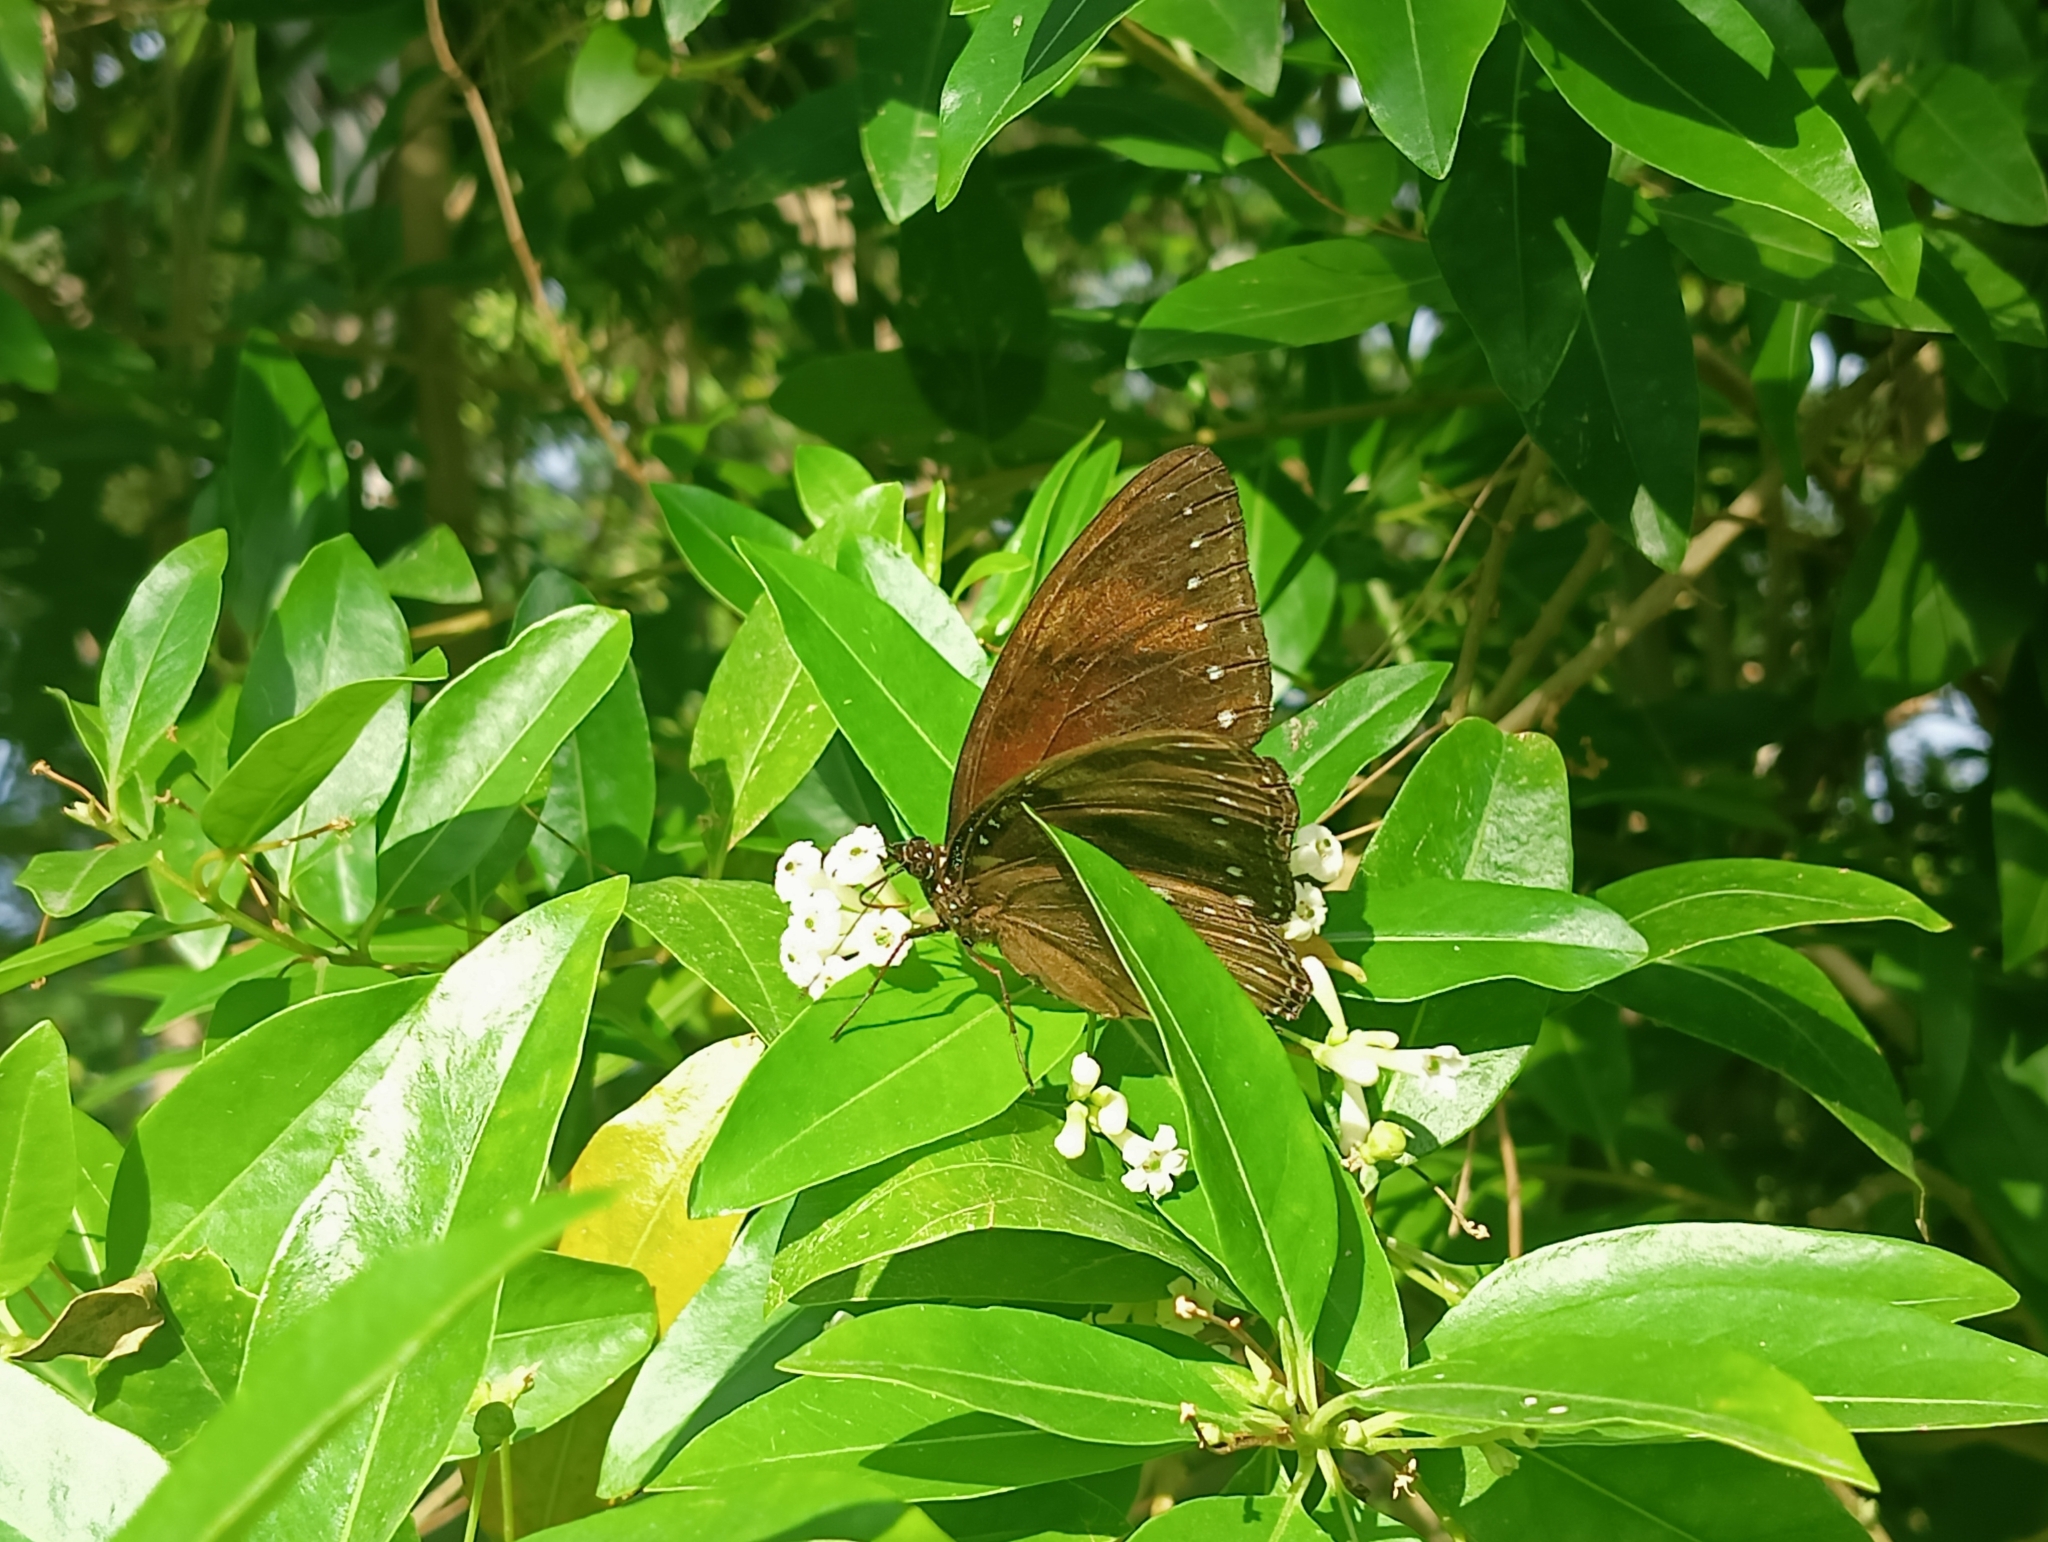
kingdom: Animalia
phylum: Arthropoda
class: Insecta
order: Lepidoptera
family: Nymphalidae
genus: Hypolimnas
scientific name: Hypolimnas antilope
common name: Spotted crow eggfly
